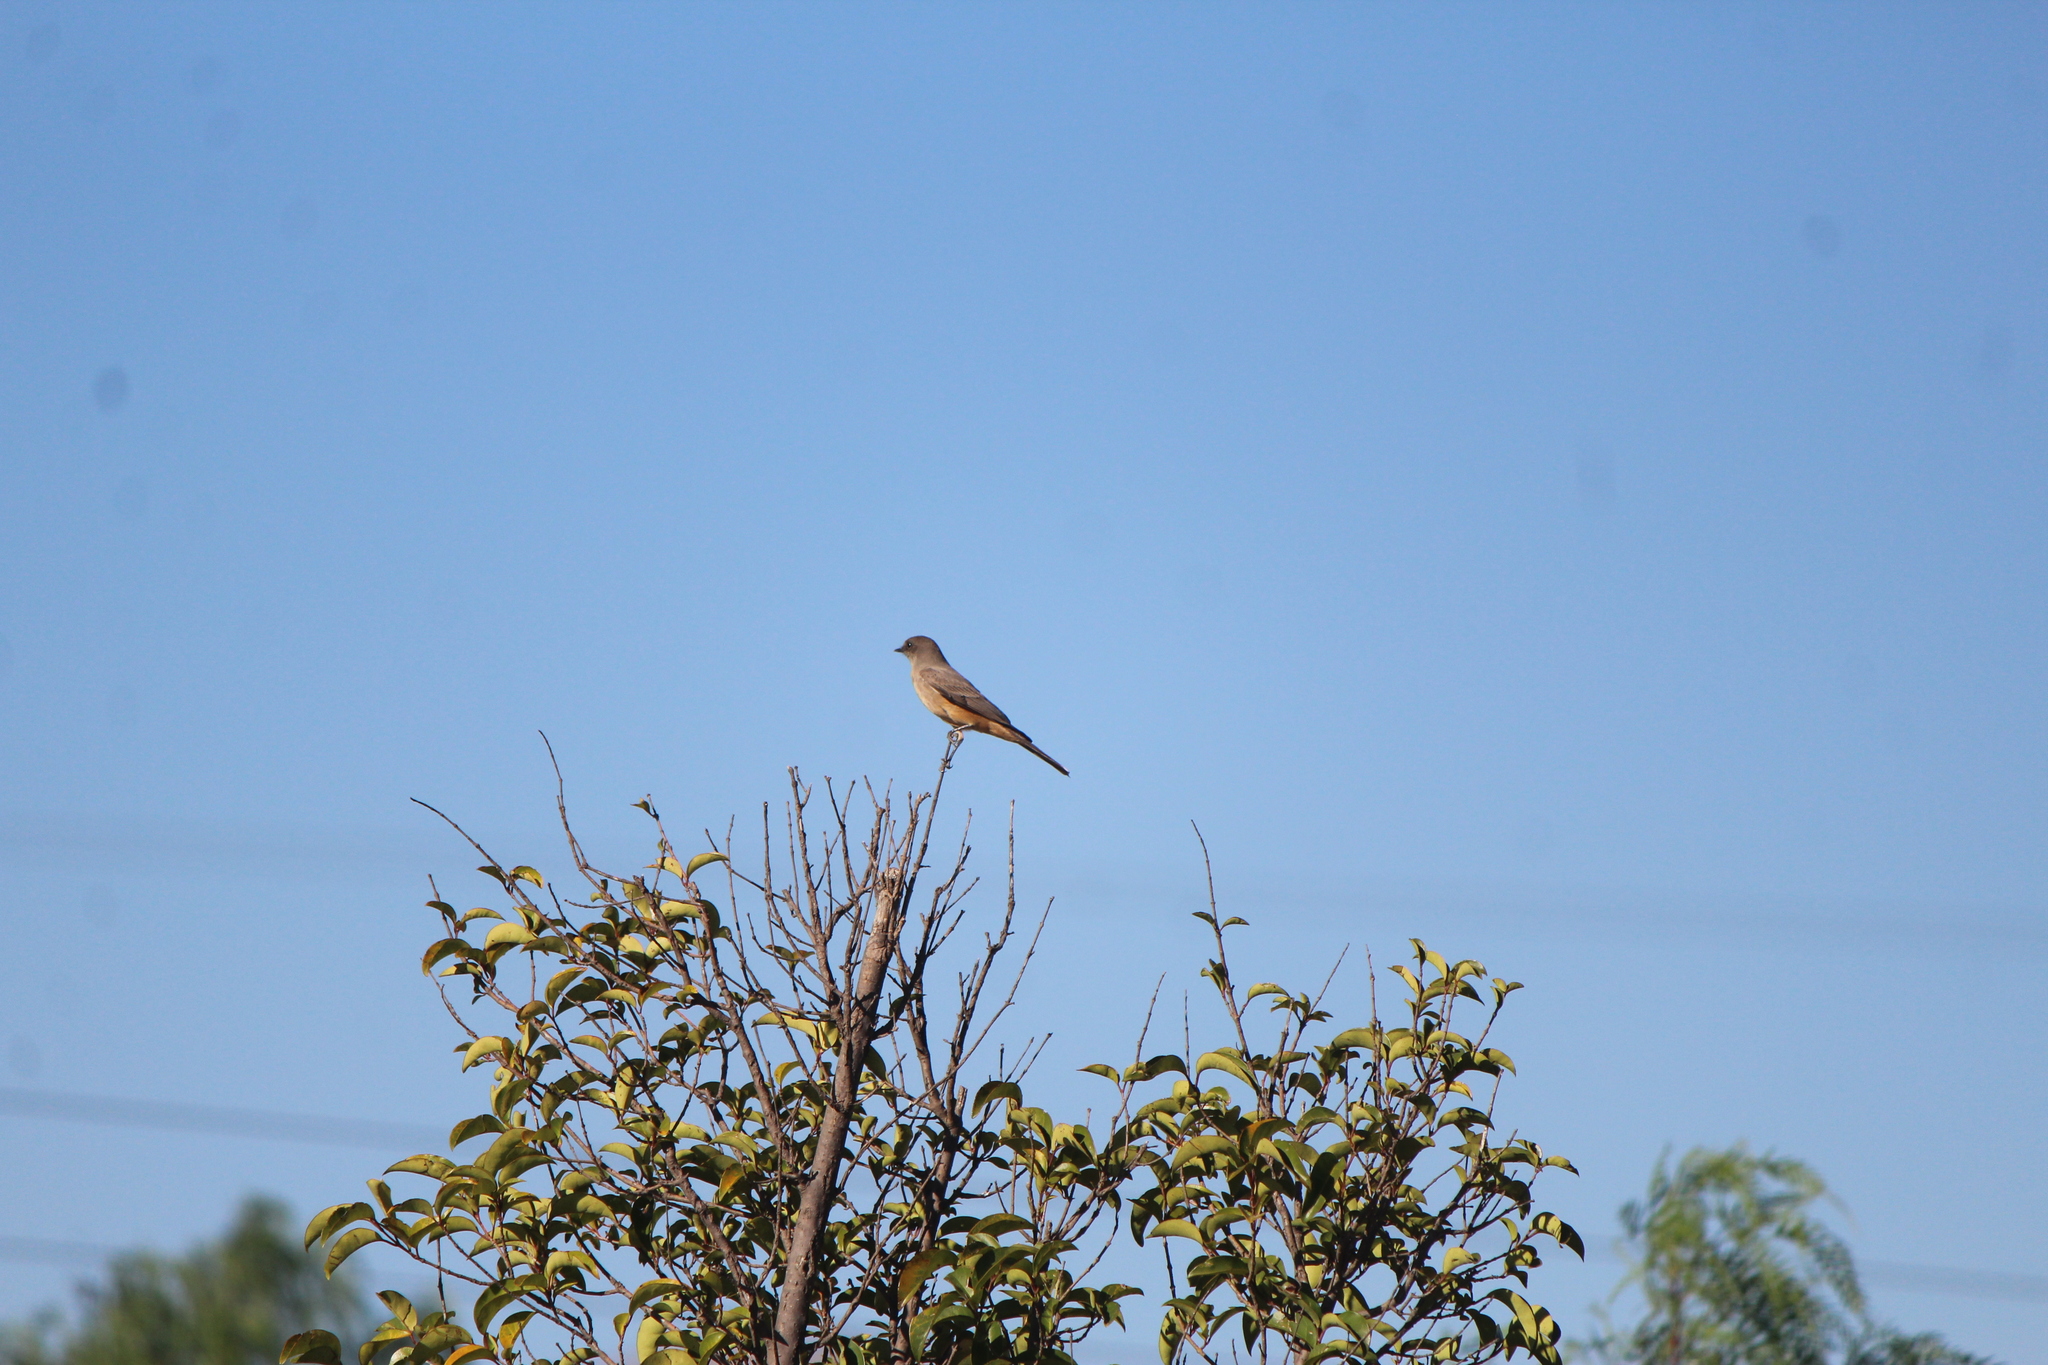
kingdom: Animalia
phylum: Chordata
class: Aves
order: Passeriformes
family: Tyrannidae
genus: Sayornis
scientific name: Sayornis saya
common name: Say's phoebe
